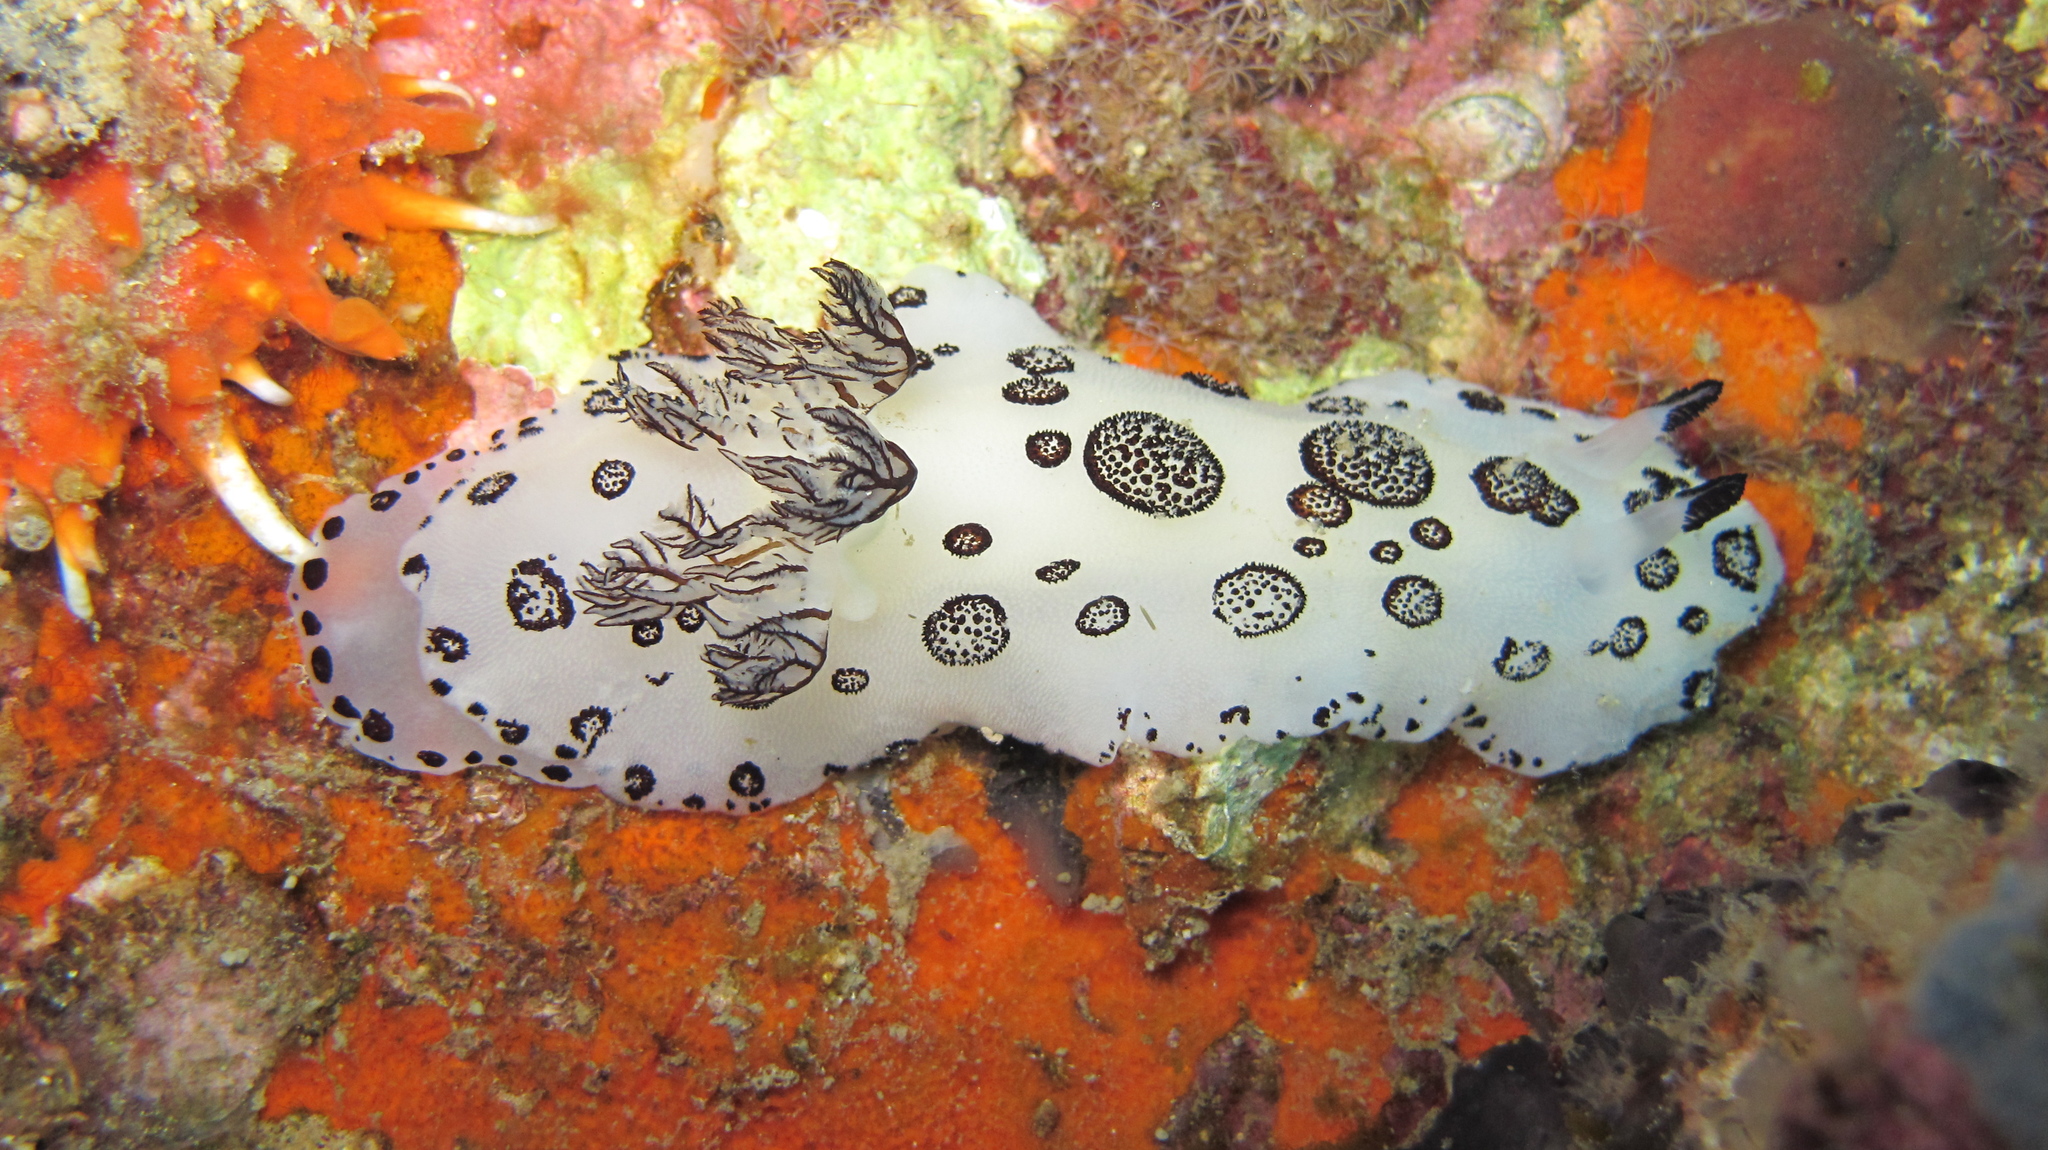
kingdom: Animalia
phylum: Mollusca
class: Gastropoda
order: Nudibranchia
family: Discodorididae
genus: Jorunna
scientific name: Jorunna funebris
